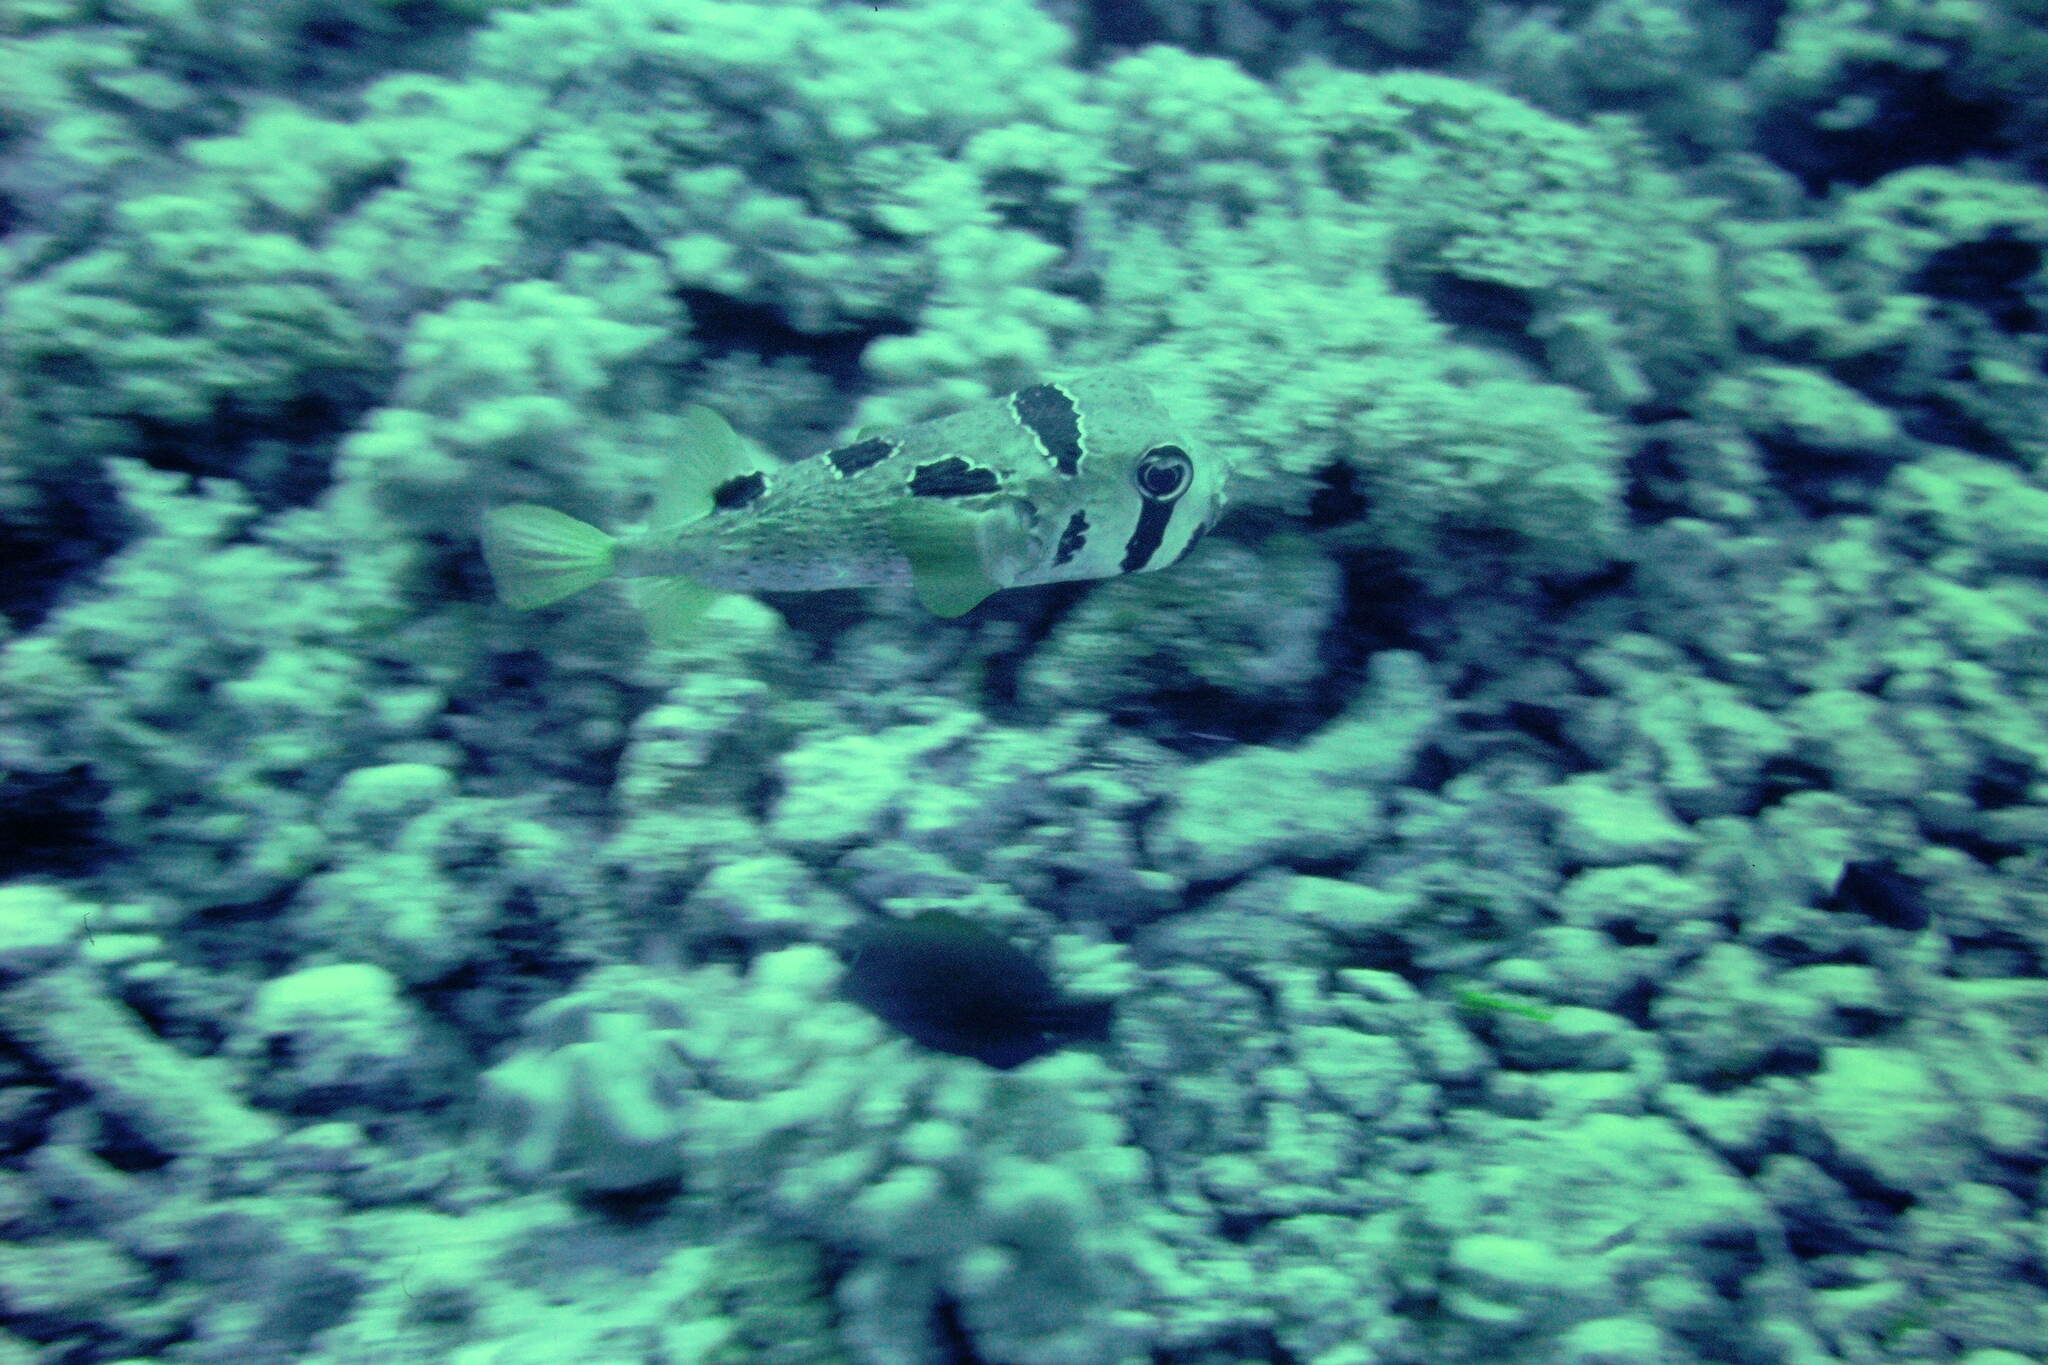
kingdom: Animalia
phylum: Chordata
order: Tetraodontiformes
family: Diodontidae
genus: Diodon
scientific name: Diodon liturosus
